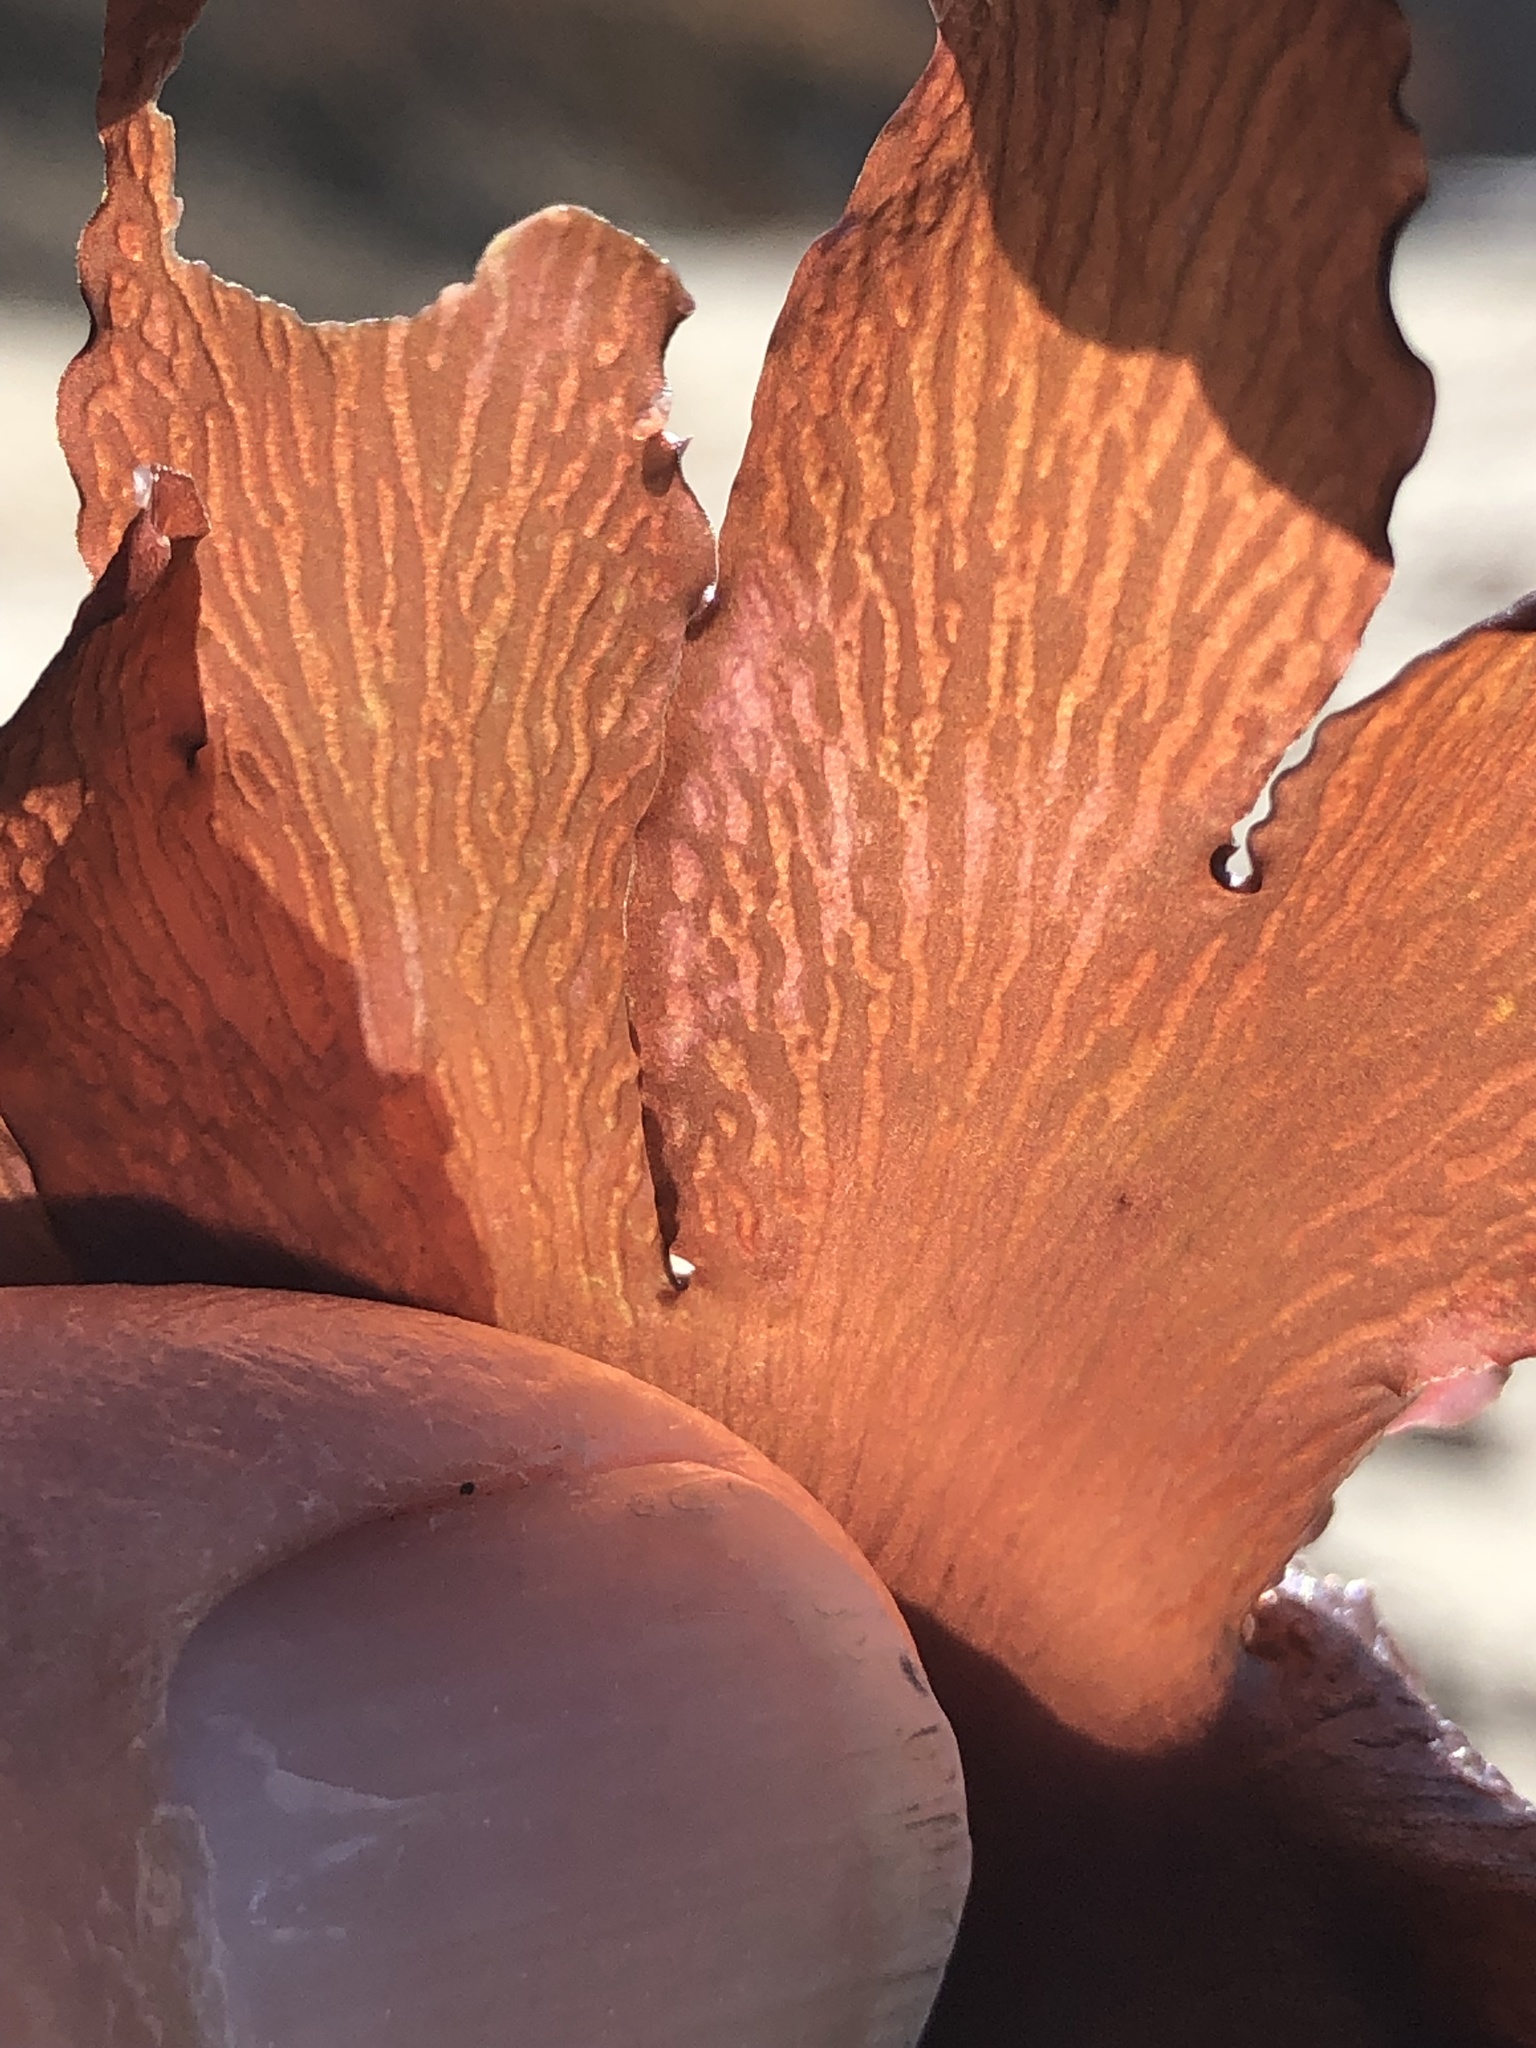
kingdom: Plantae
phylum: Rhodophyta
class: Florideophyceae
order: Ceramiales
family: Delesseriaceae
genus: Hymenena
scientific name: Hymenena flabelligera
